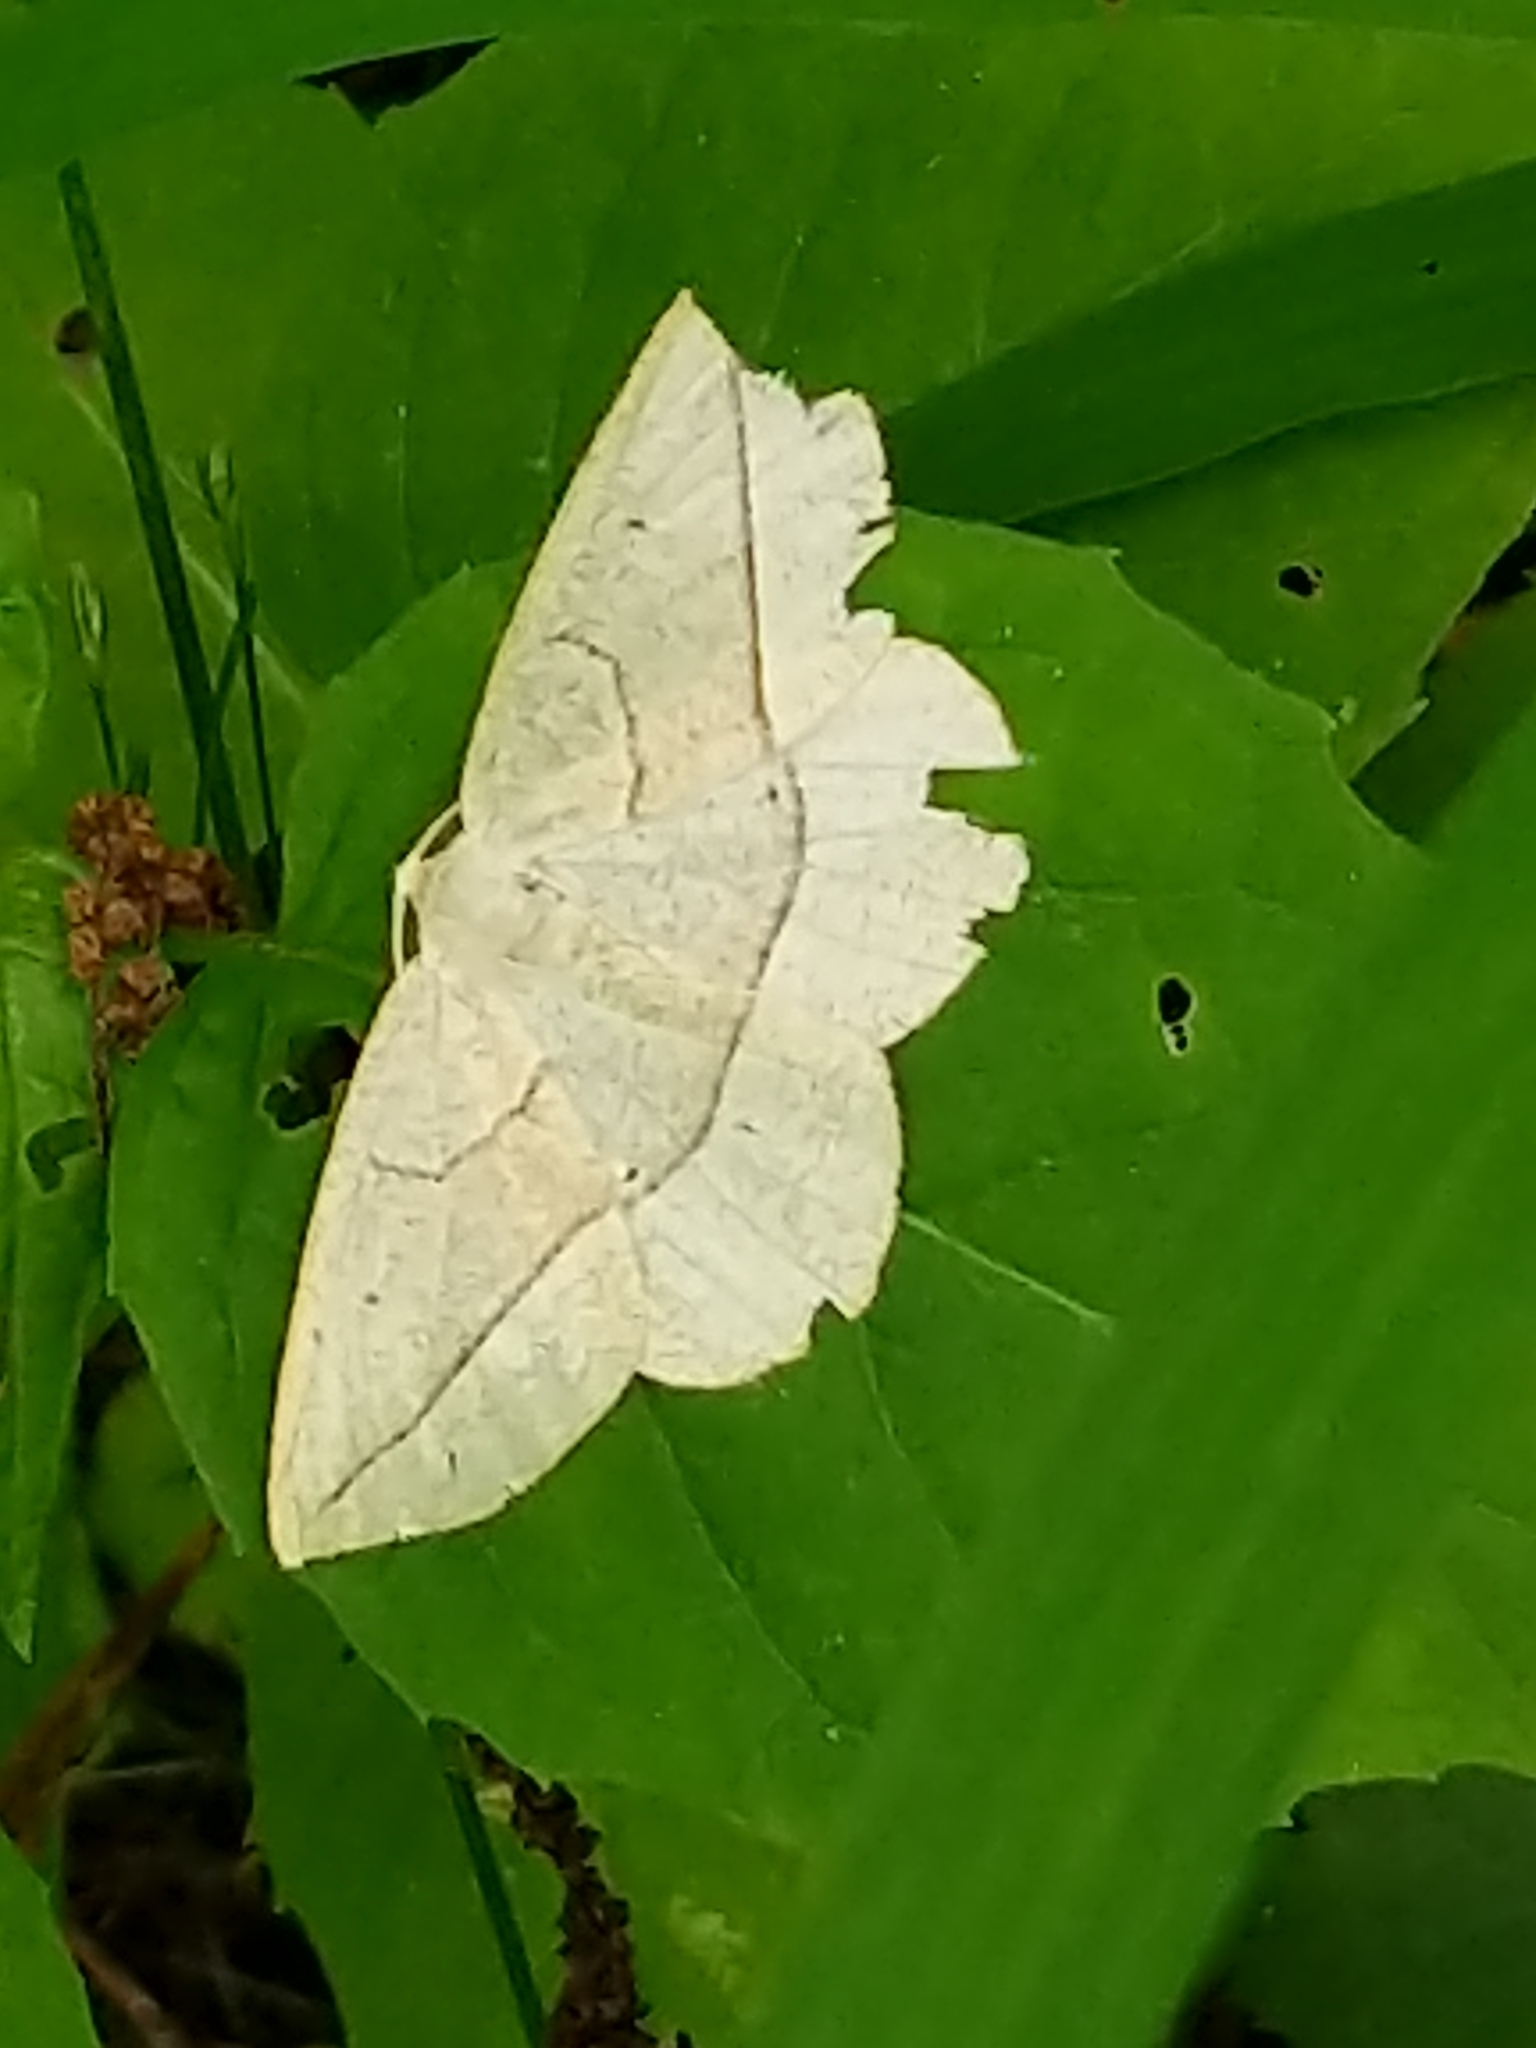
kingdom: Animalia
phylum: Arthropoda
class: Insecta
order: Lepidoptera
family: Geometridae
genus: Eusarca
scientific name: Eusarca confusaria
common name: Confused eusarca
